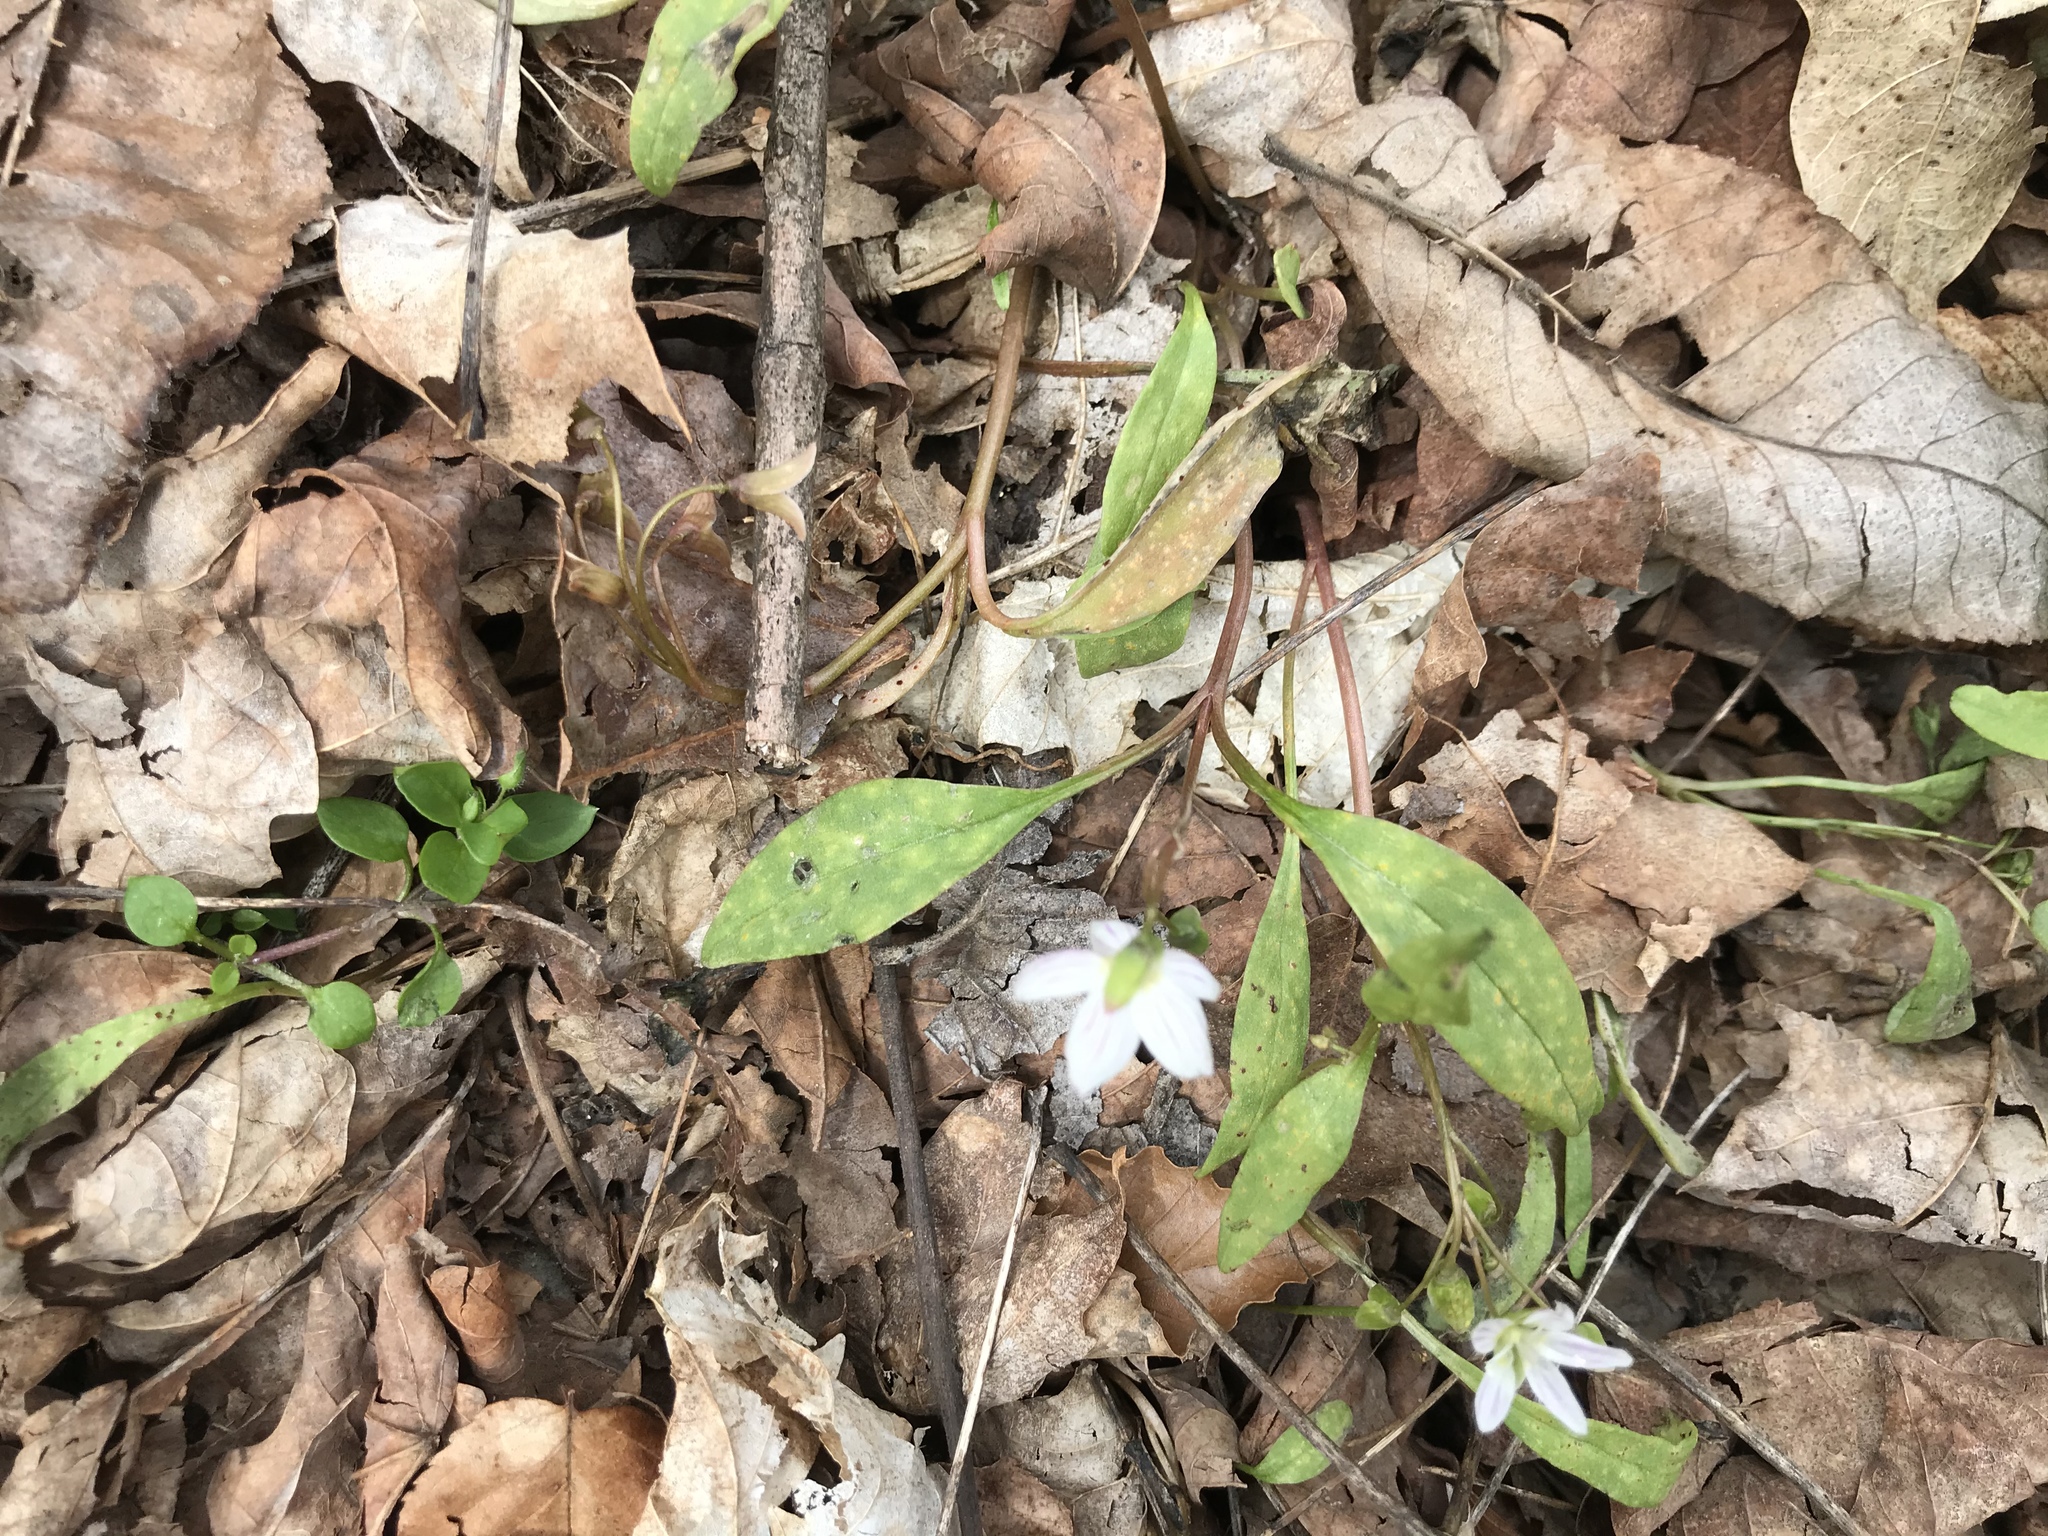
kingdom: Plantae
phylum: Tracheophyta
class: Magnoliopsida
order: Caryophyllales
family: Montiaceae
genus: Claytonia
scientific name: Claytonia caroliniana
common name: Carolina spring beauty
